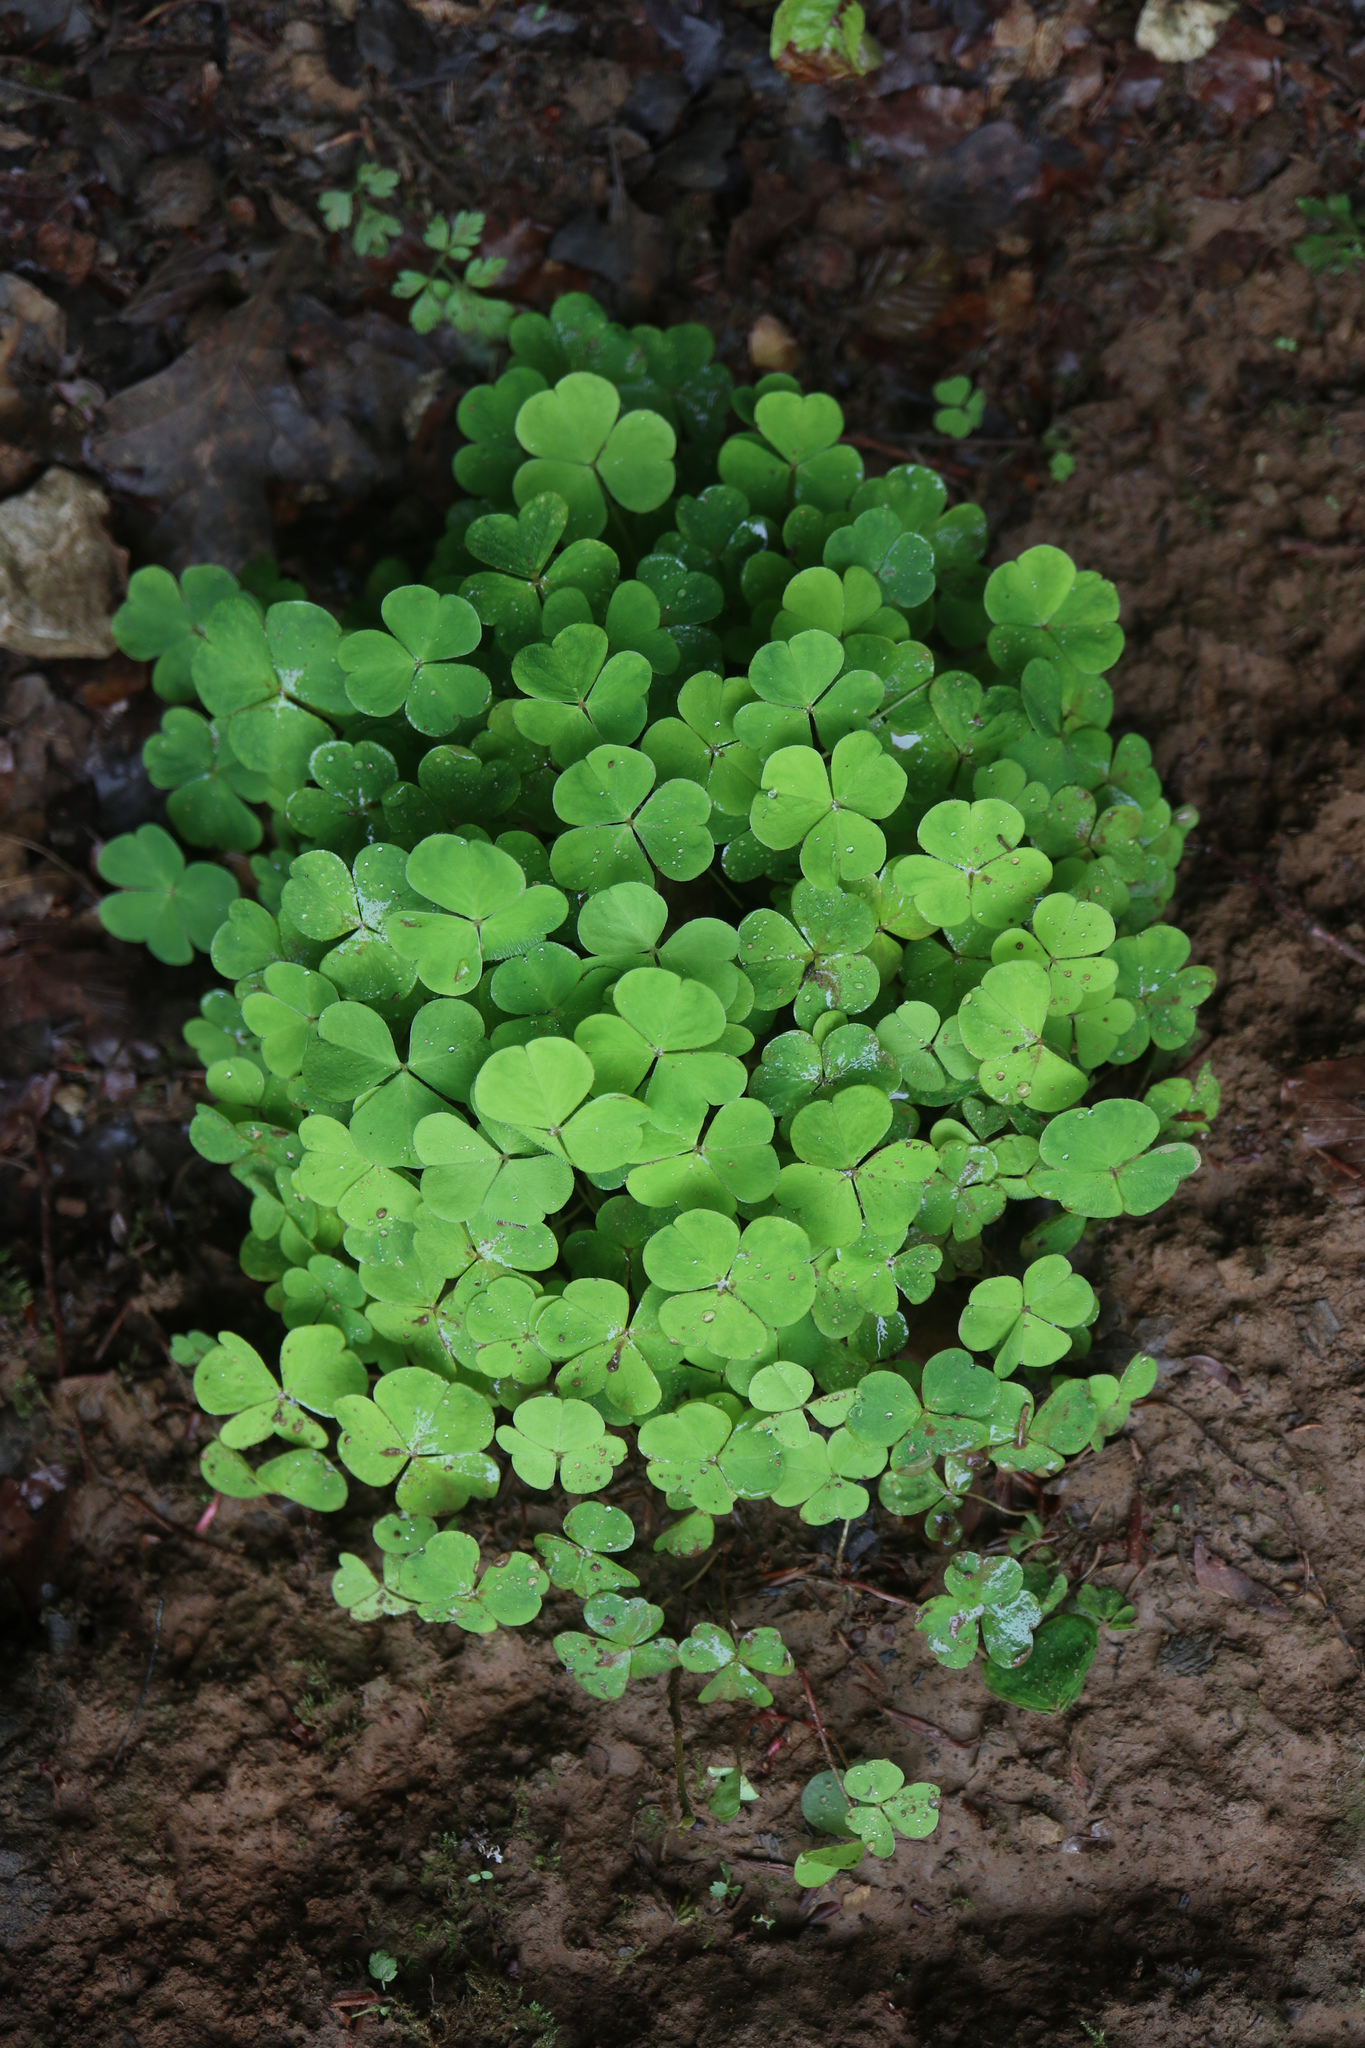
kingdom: Plantae
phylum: Tracheophyta
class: Magnoliopsida
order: Oxalidales
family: Oxalidaceae
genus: Oxalis
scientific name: Oxalis acetosella
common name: Wood-sorrel
